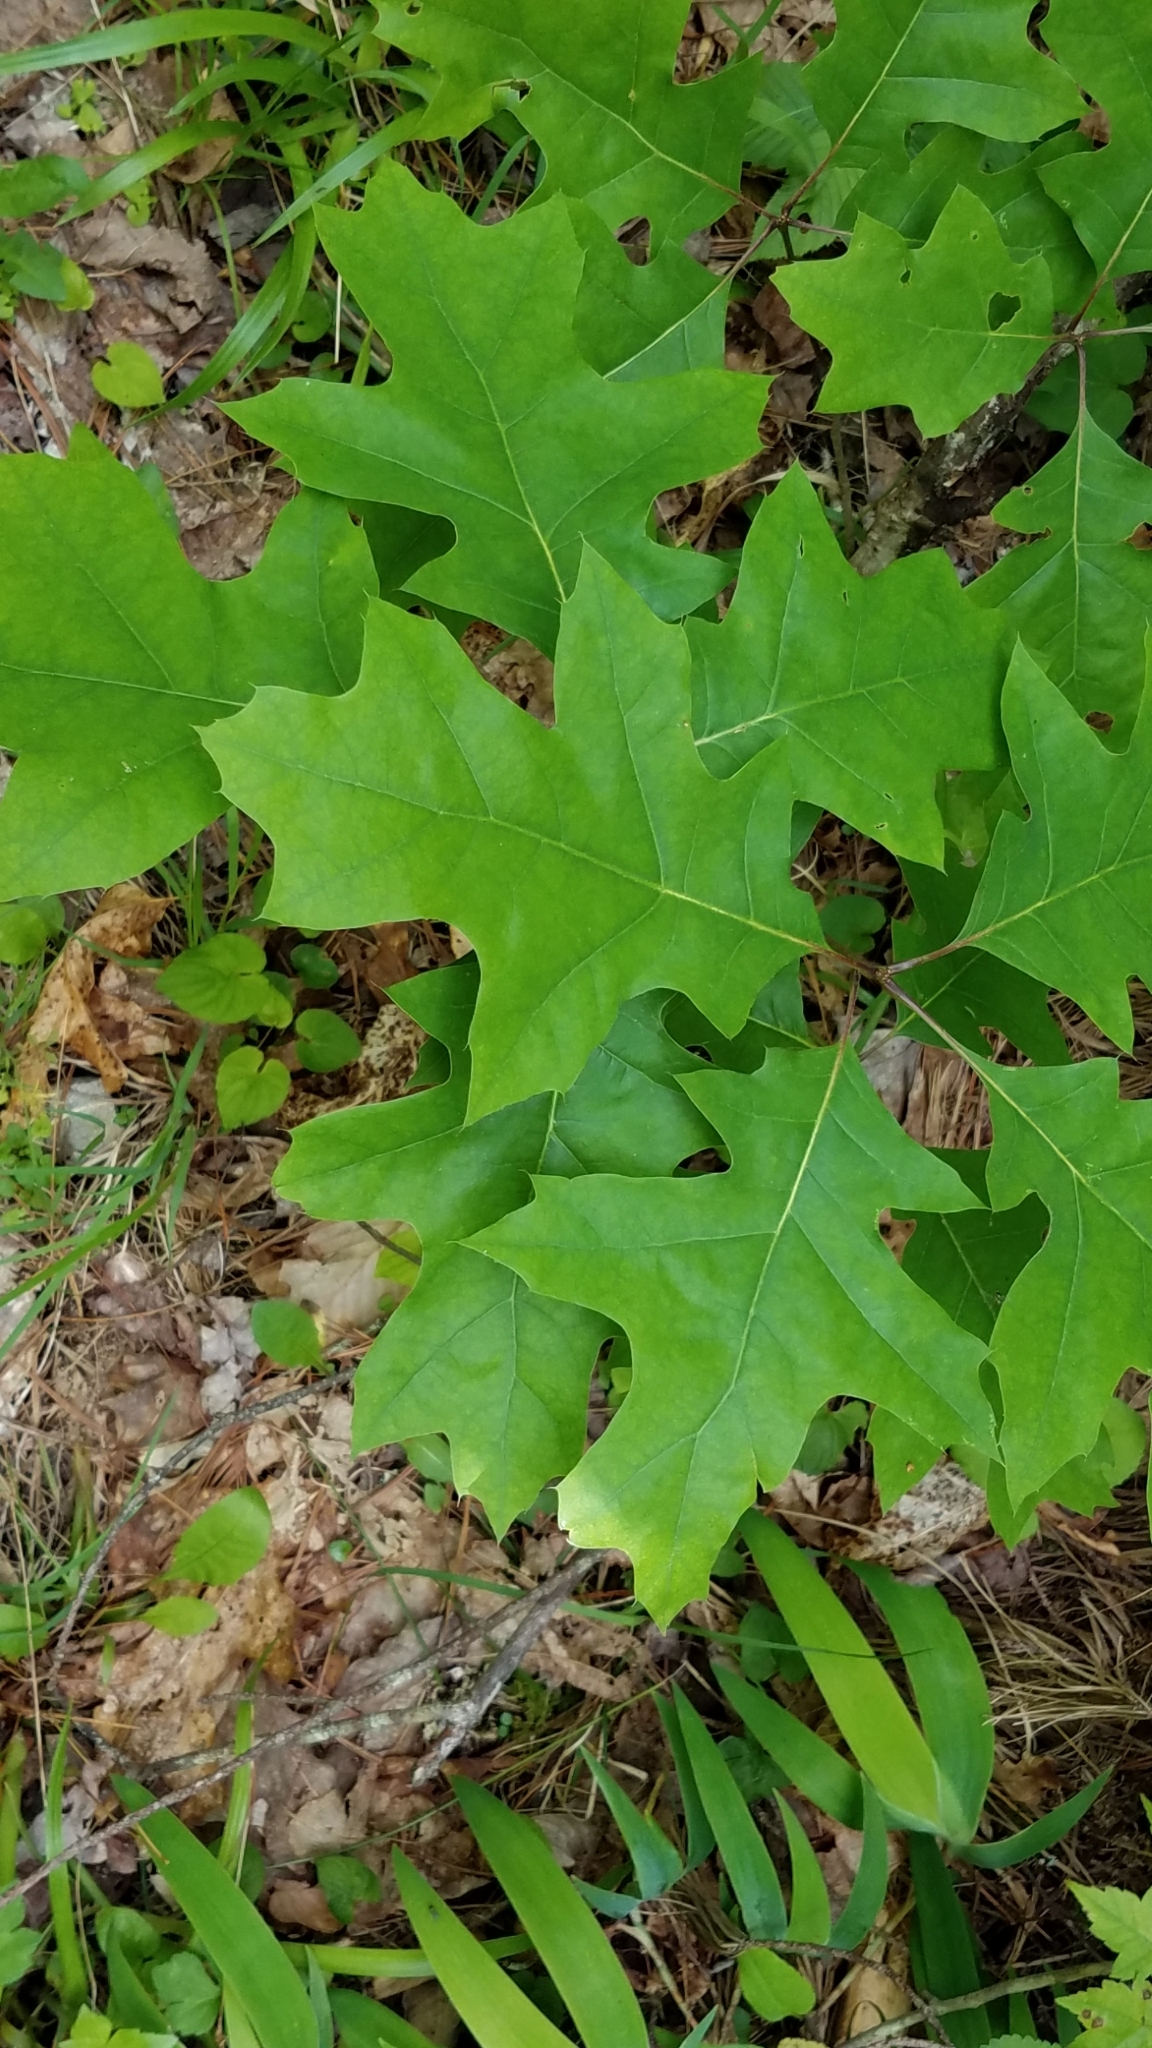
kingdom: Plantae
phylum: Tracheophyta
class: Magnoliopsida
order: Fagales
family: Fagaceae
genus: Quercus
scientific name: Quercus rubra
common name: Red oak
